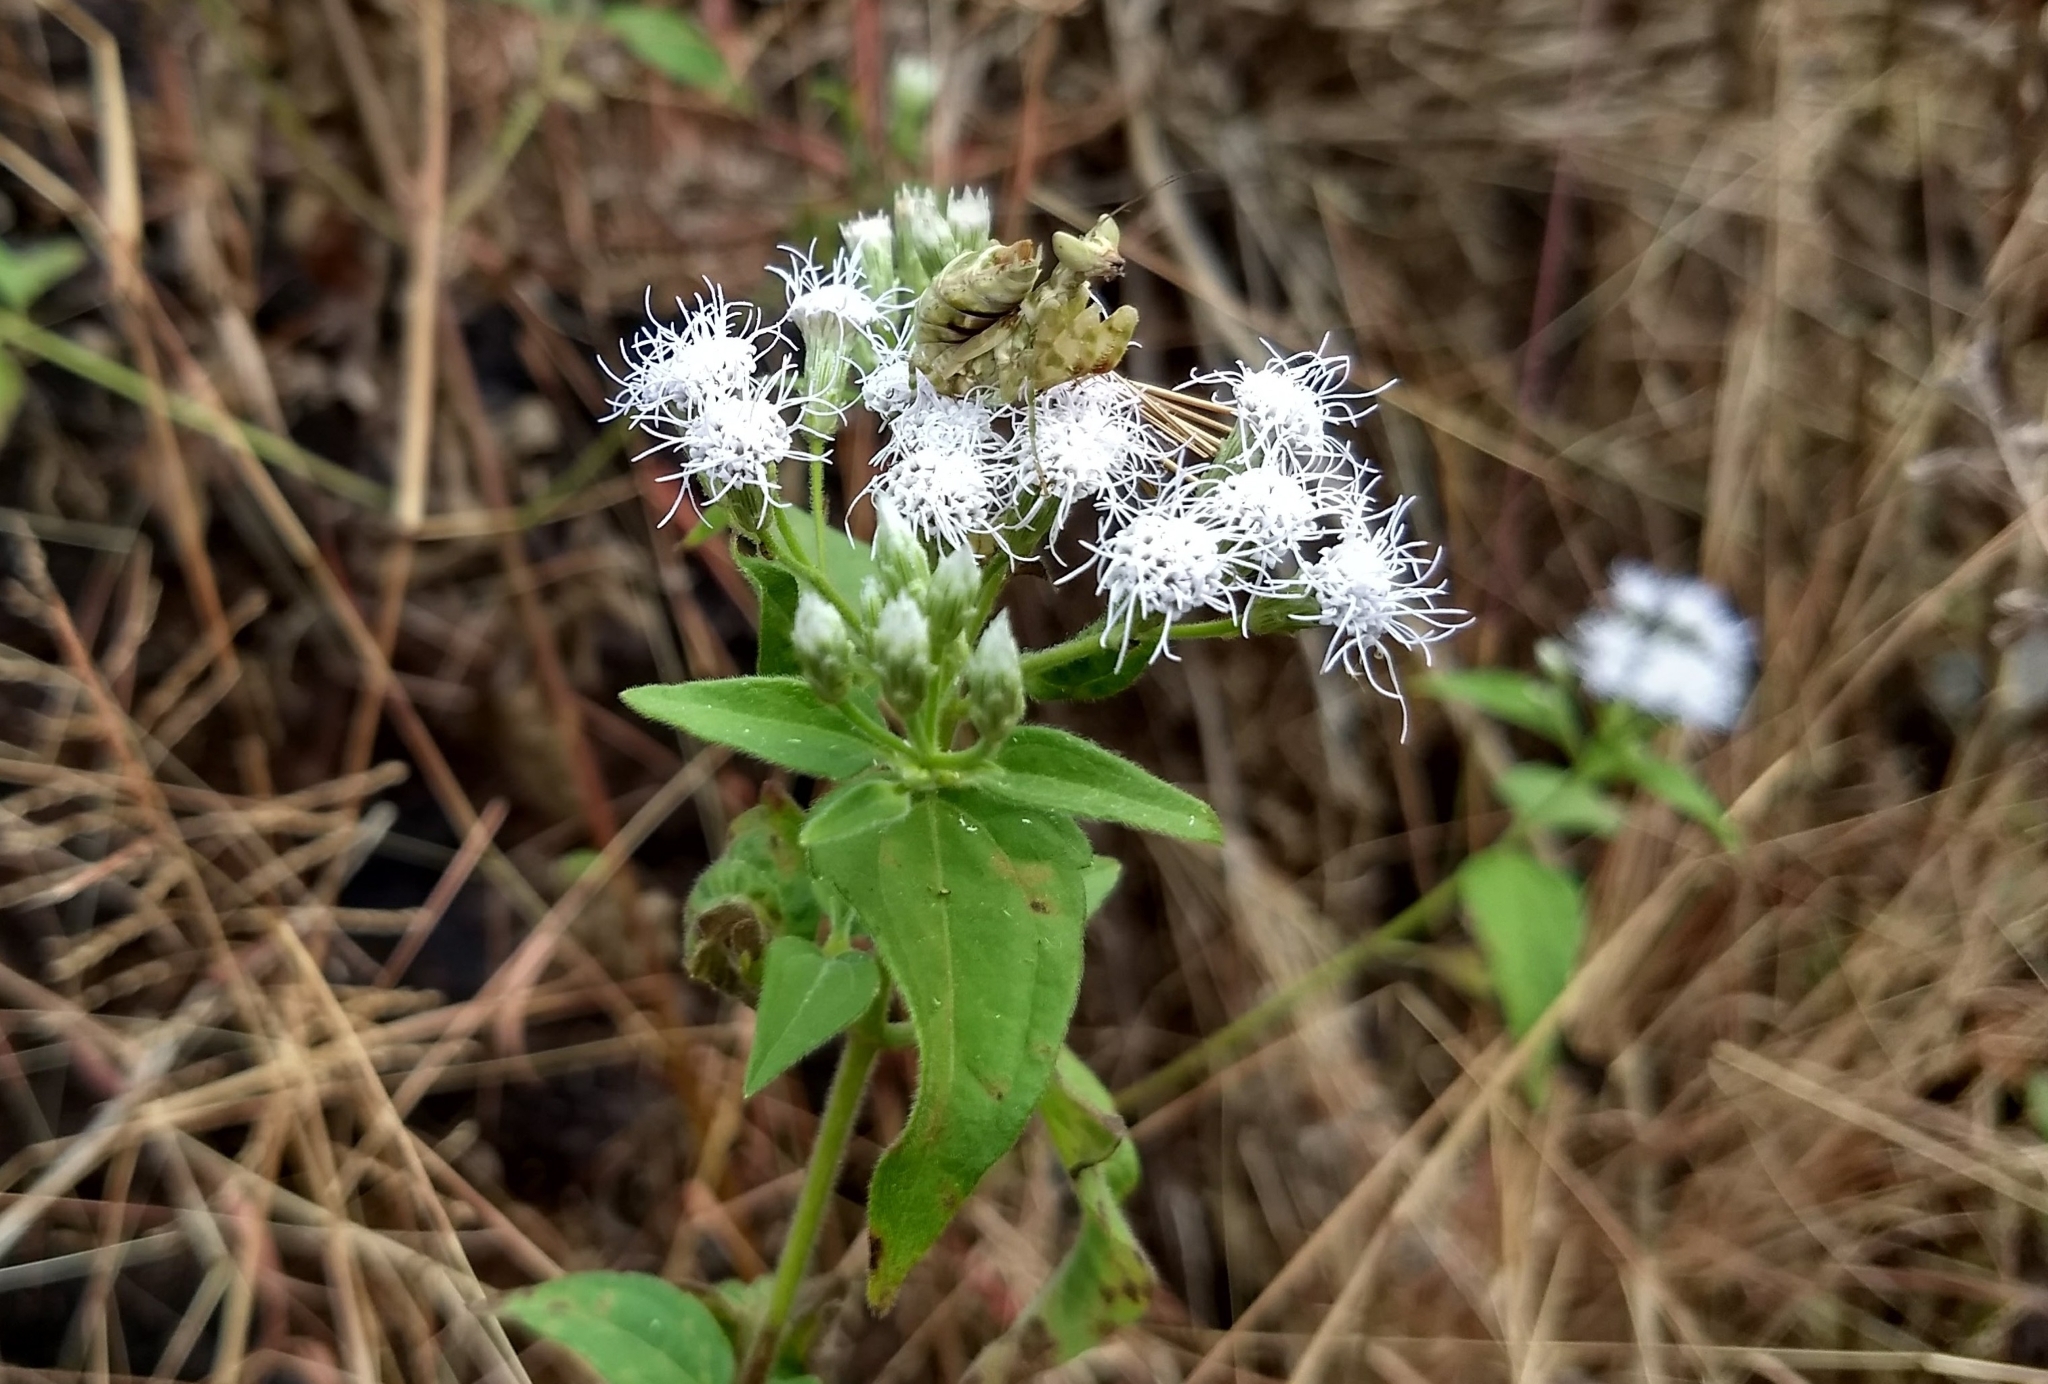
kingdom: Plantae
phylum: Tracheophyta
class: Magnoliopsida
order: Asterales
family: Asteraceae
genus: Chromolaena
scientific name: Chromolaena odorata
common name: Siamweed
